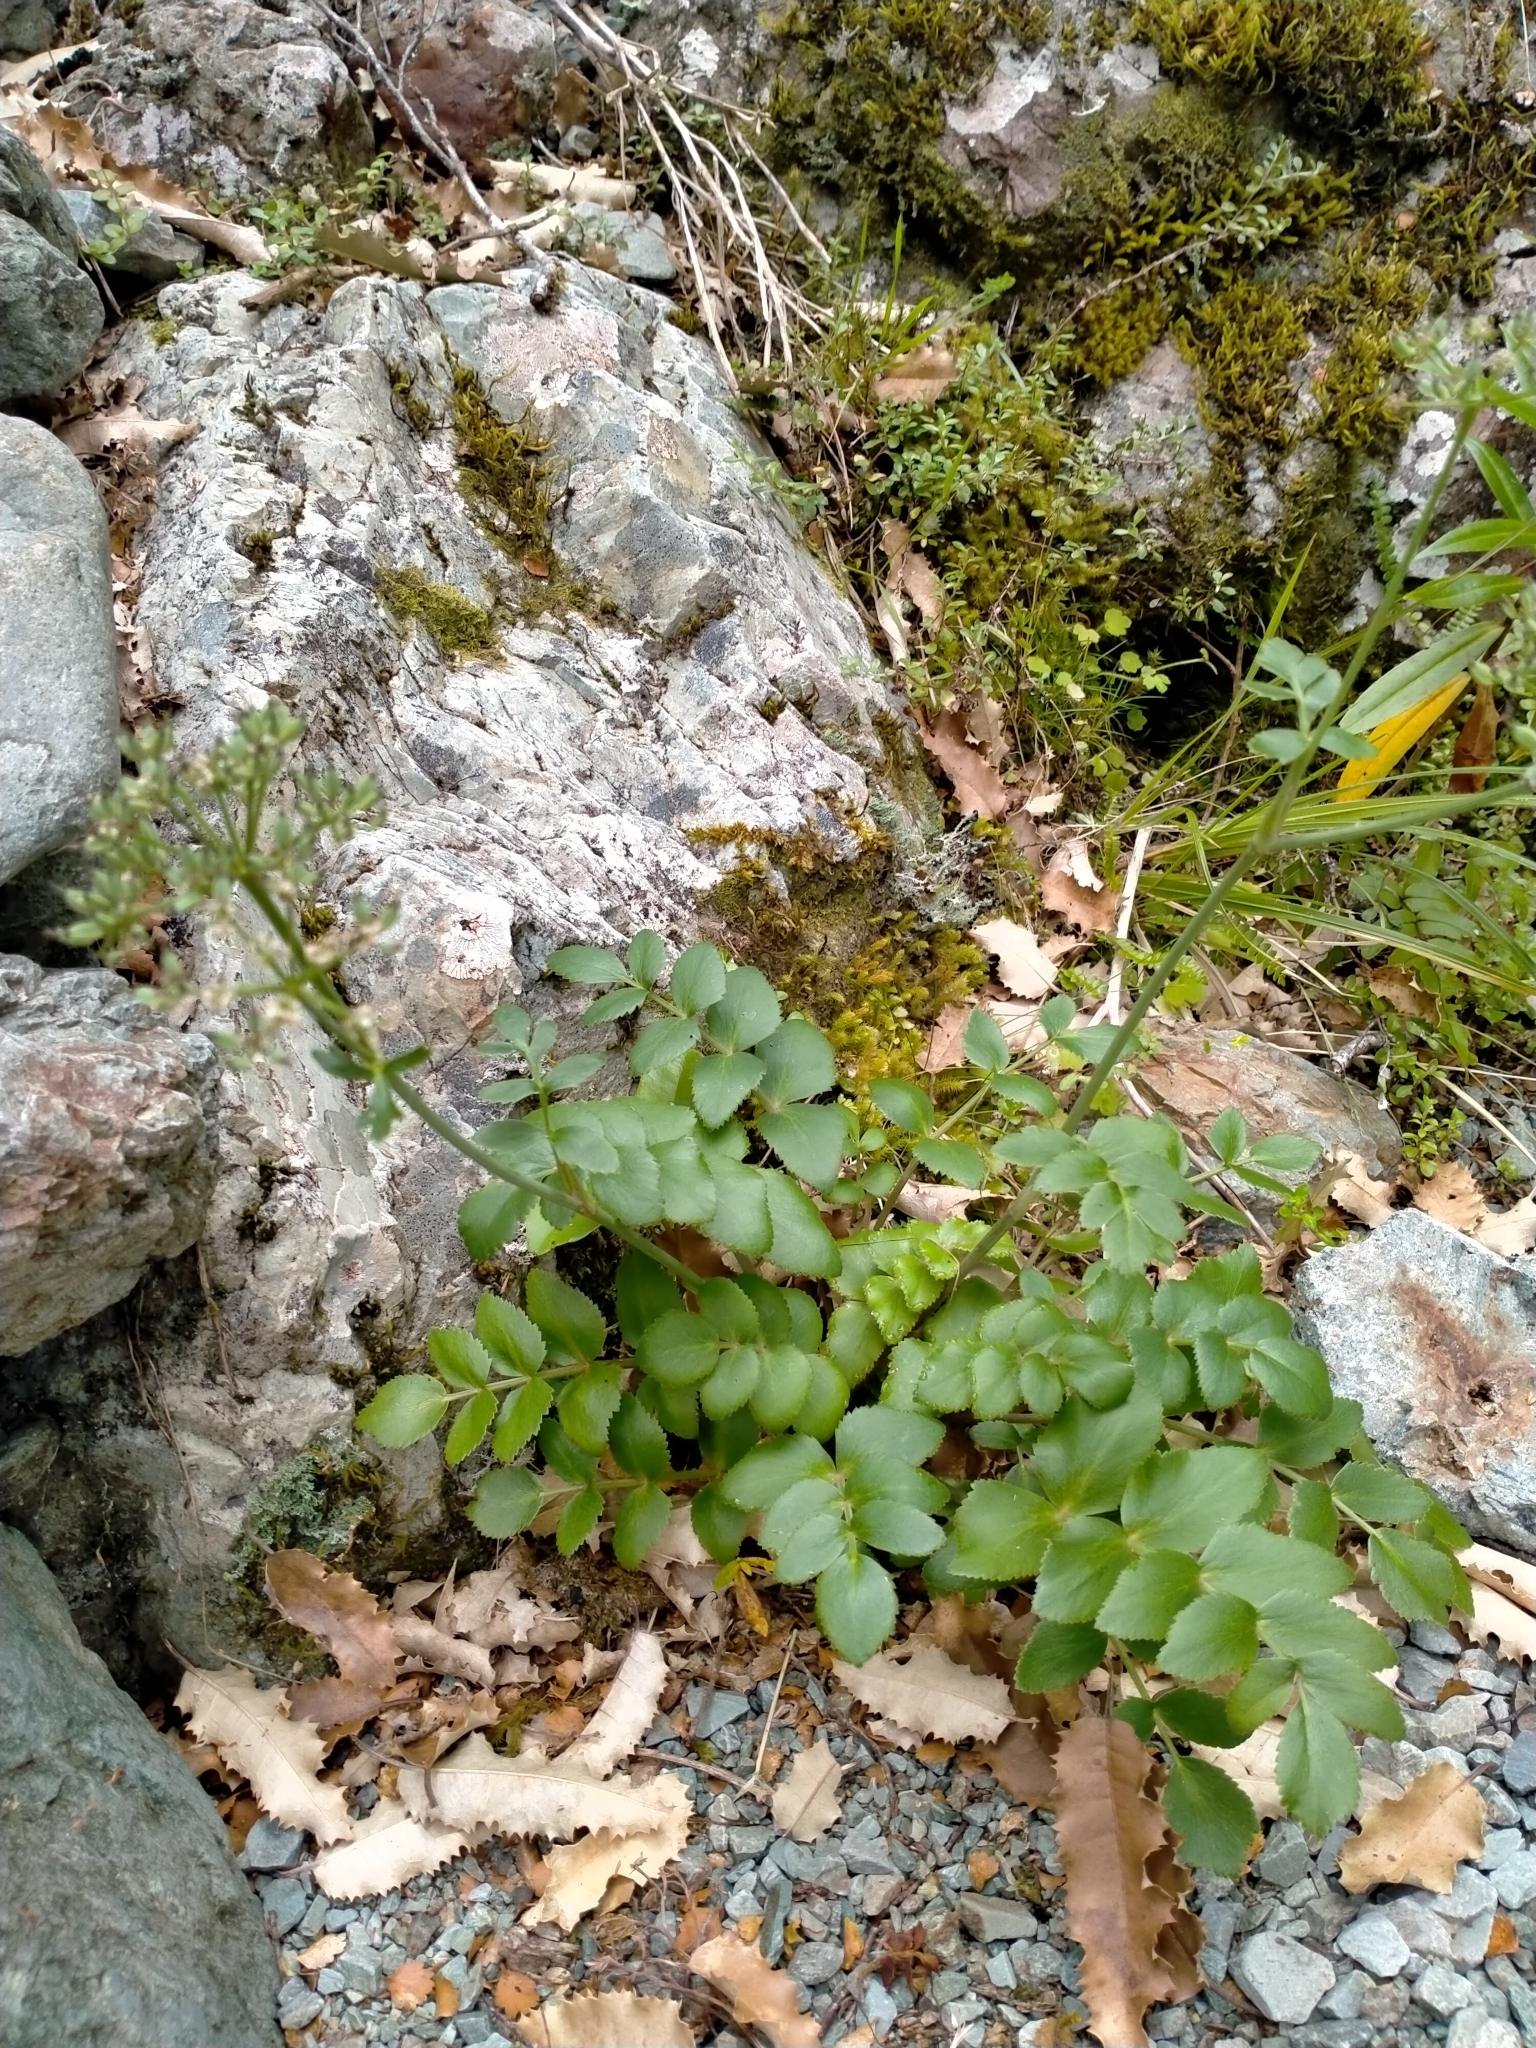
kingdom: Plantae
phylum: Tracheophyta
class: Magnoliopsida
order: Apiales
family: Apiaceae
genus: Gingidia
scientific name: Gingidia montana
